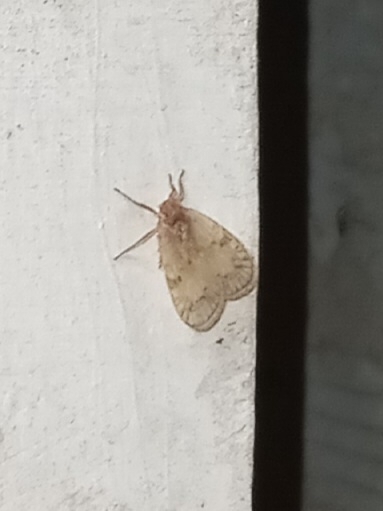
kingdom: Animalia
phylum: Arthropoda
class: Insecta
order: Hemiptera
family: Cixiidae
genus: Bothriocera
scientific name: Bothriocera drakei
